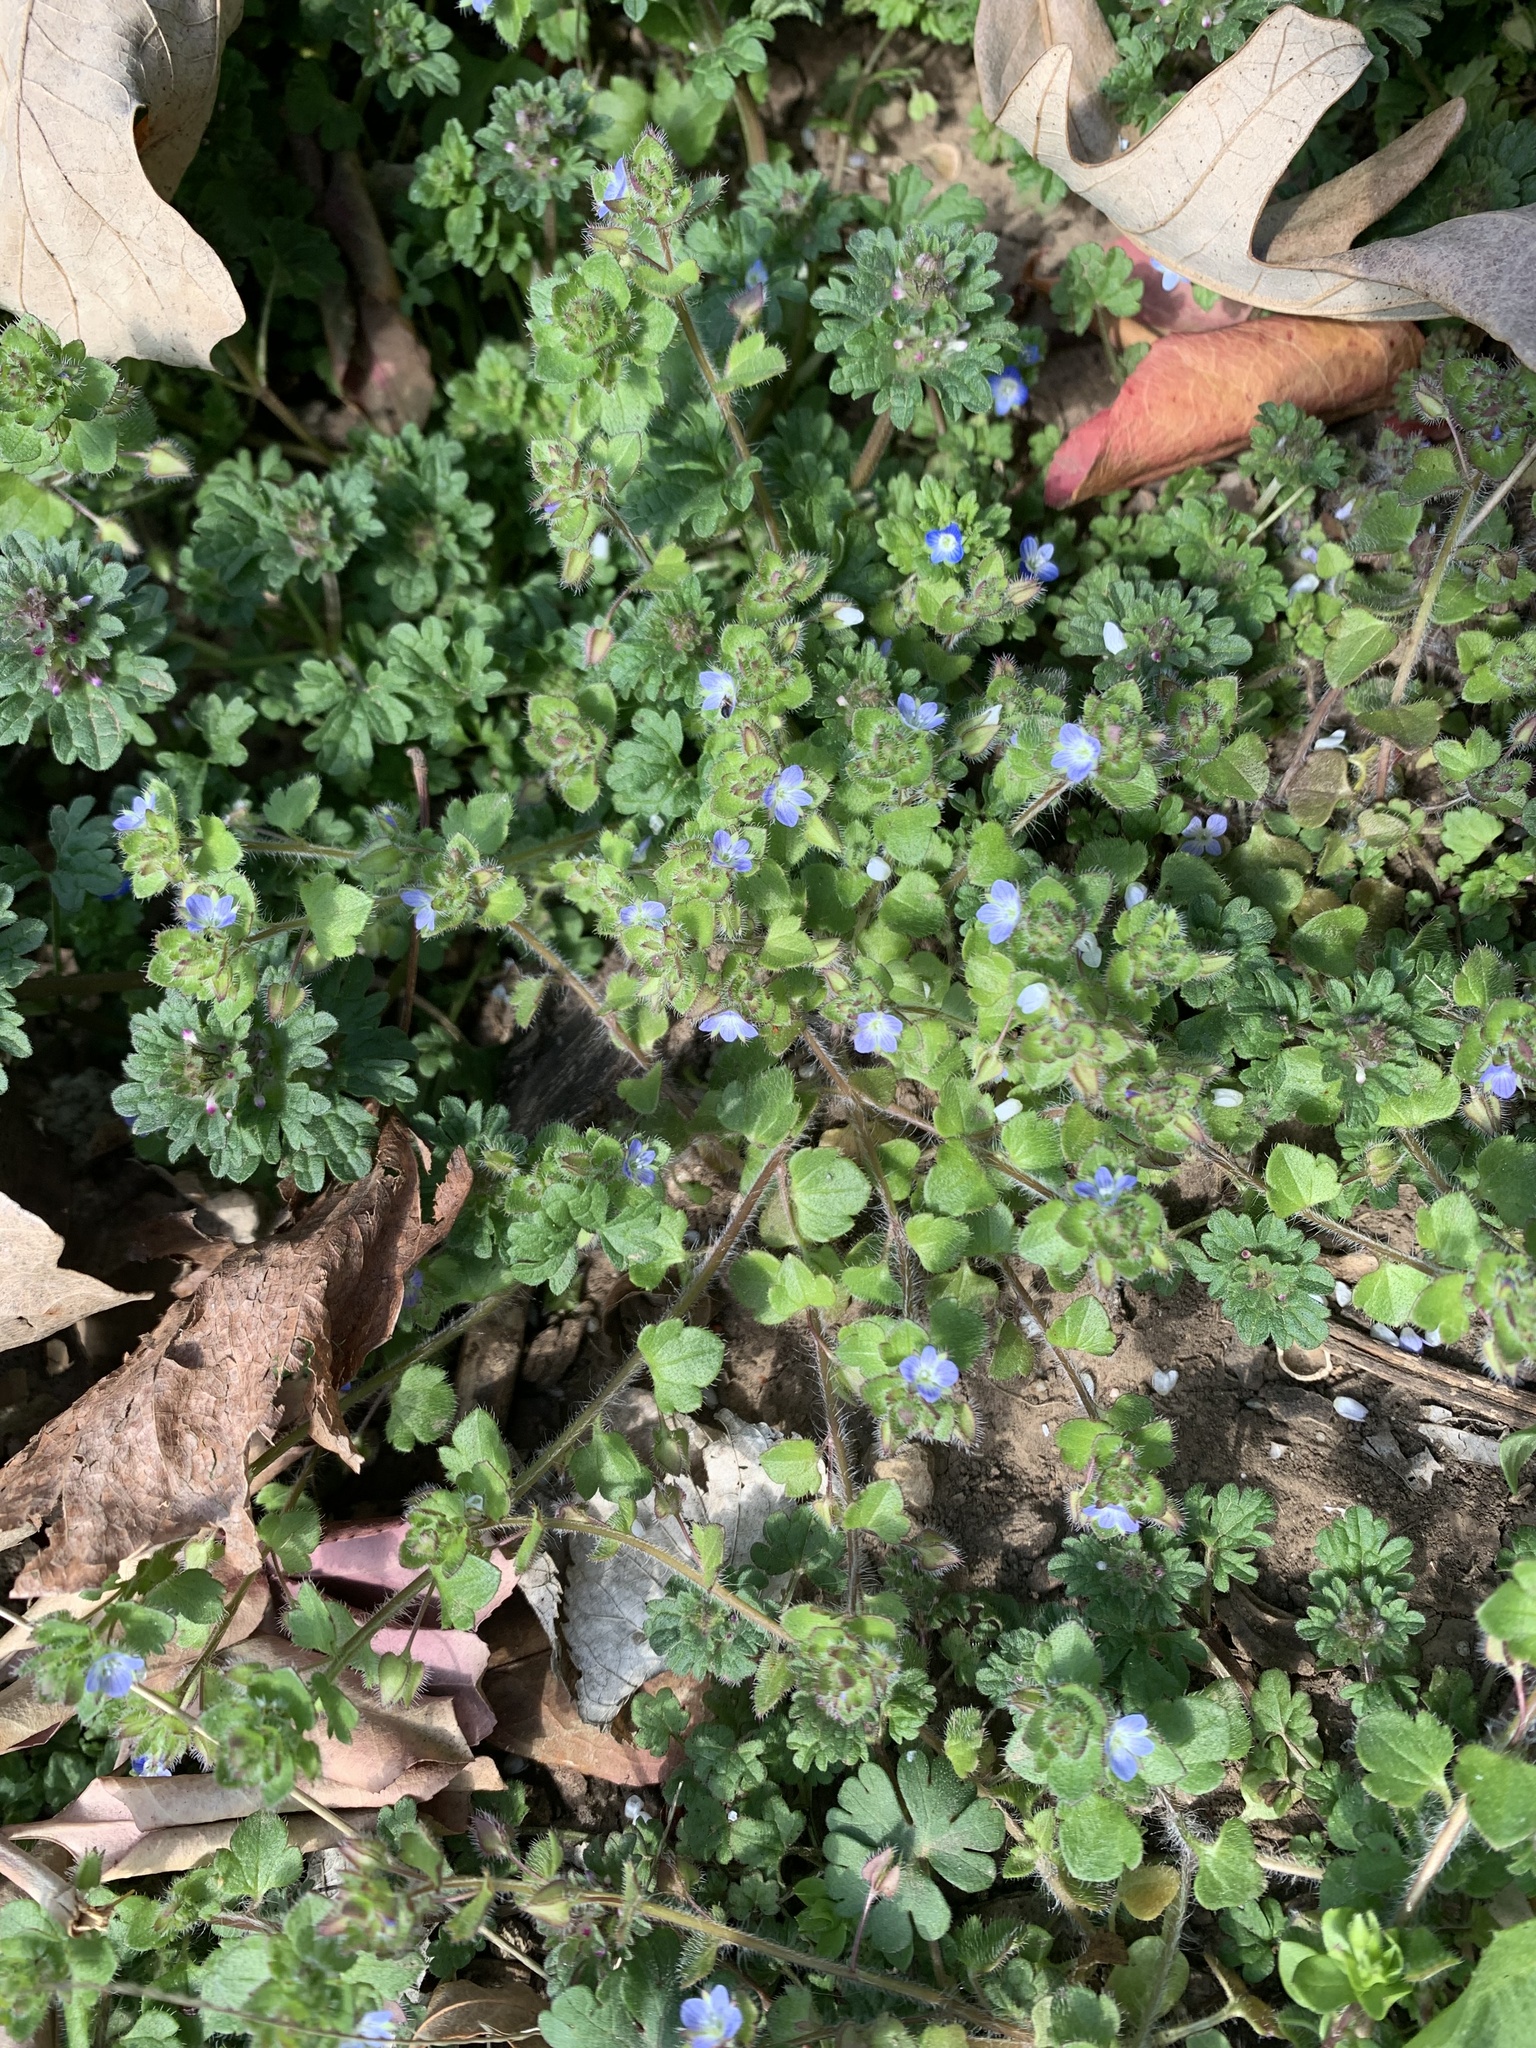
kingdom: Plantae
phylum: Tracheophyta
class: Magnoliopsida
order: Lamiales
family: Plantaginaceae
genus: Veronica
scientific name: Veronica hederifolia
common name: Ivy-leaved speedwell
